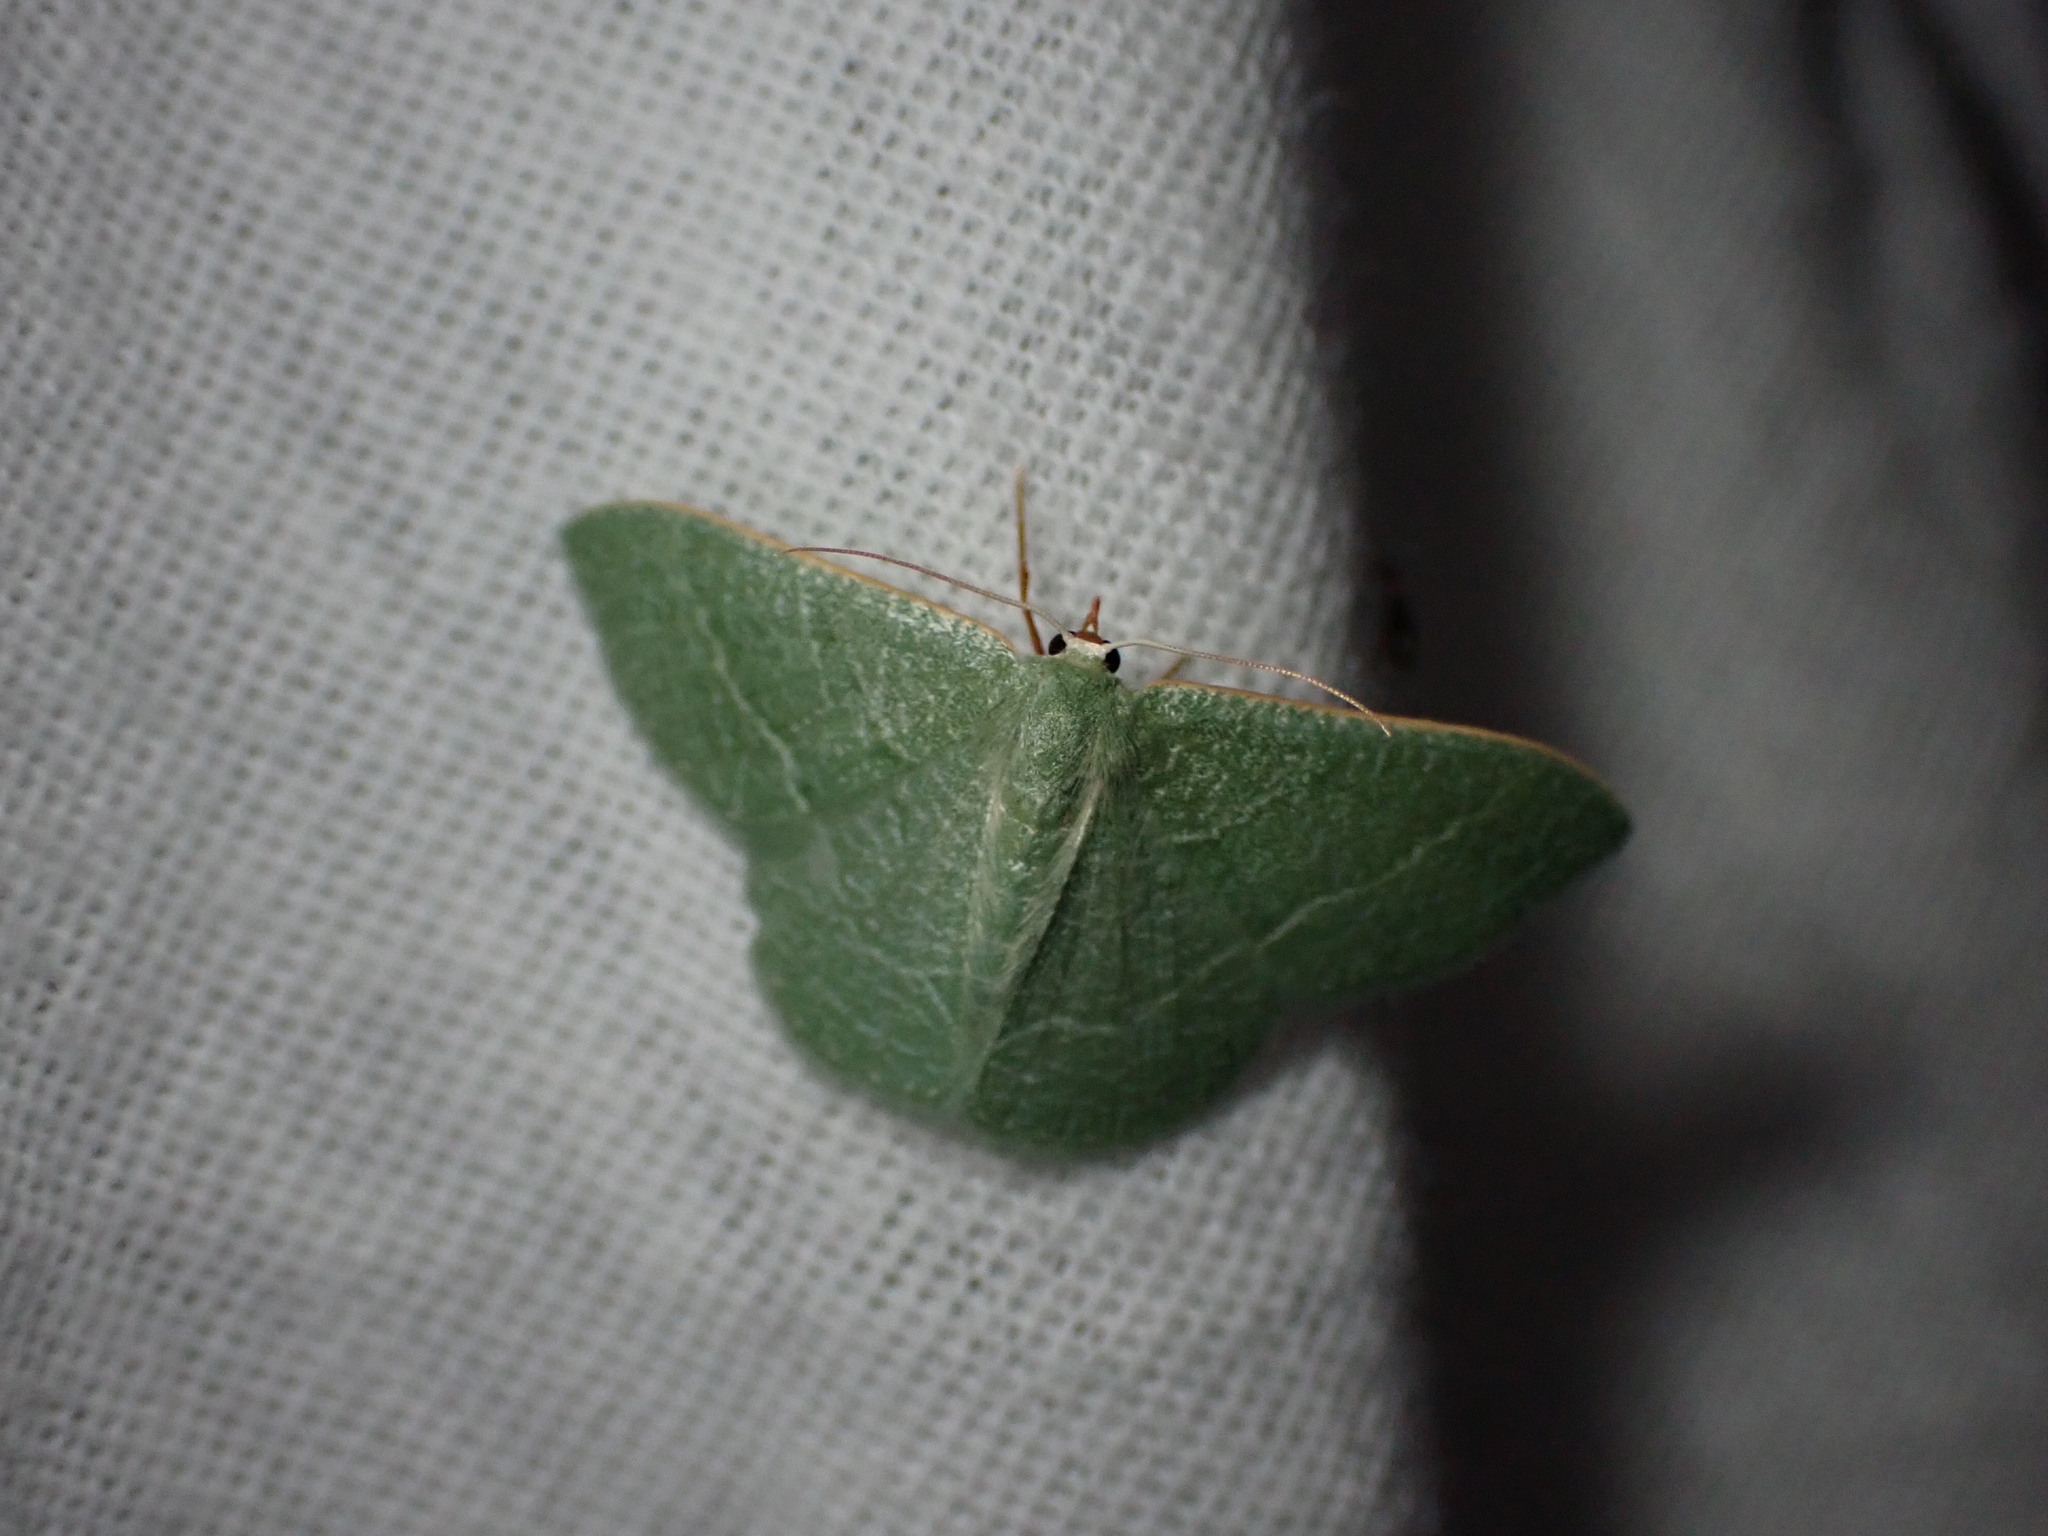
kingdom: Animalia
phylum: Arthropoda
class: Insecta
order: Lepidoptera
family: Geometridae
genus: Chlorissa
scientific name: Chlorissa etruscaria
